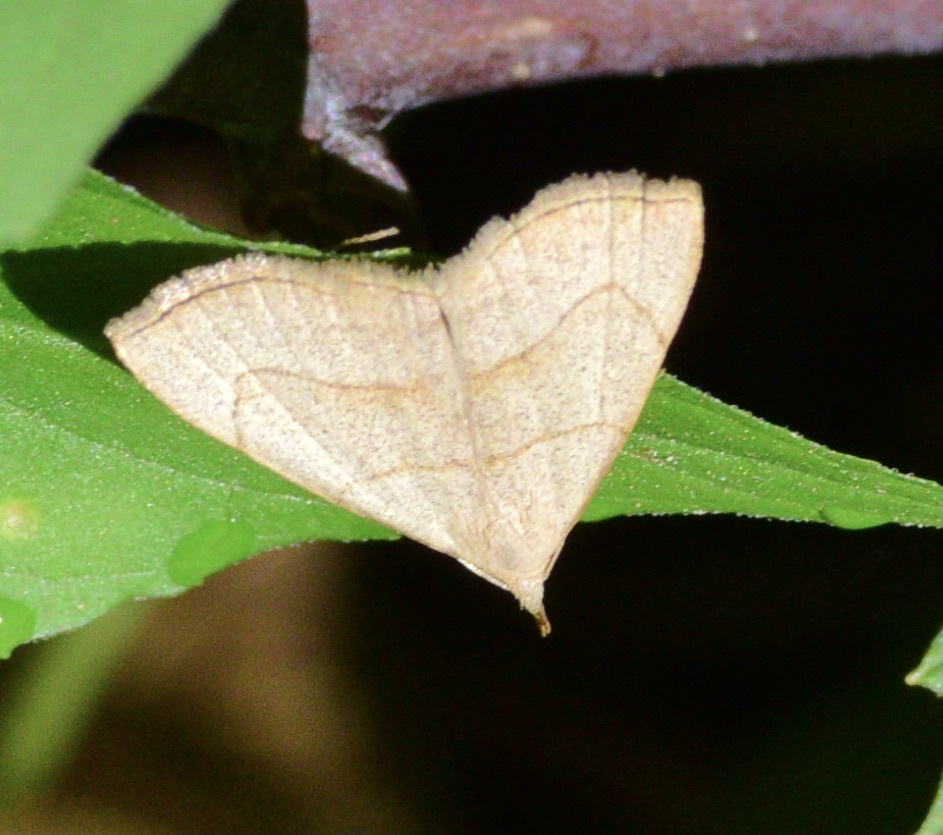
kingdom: Animalia
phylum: Arthropoda
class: Insecta
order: Lepidoptera
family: Erebidae
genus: Macrochilo
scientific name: Macrochilo litophora
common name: Brown-lined owlet
